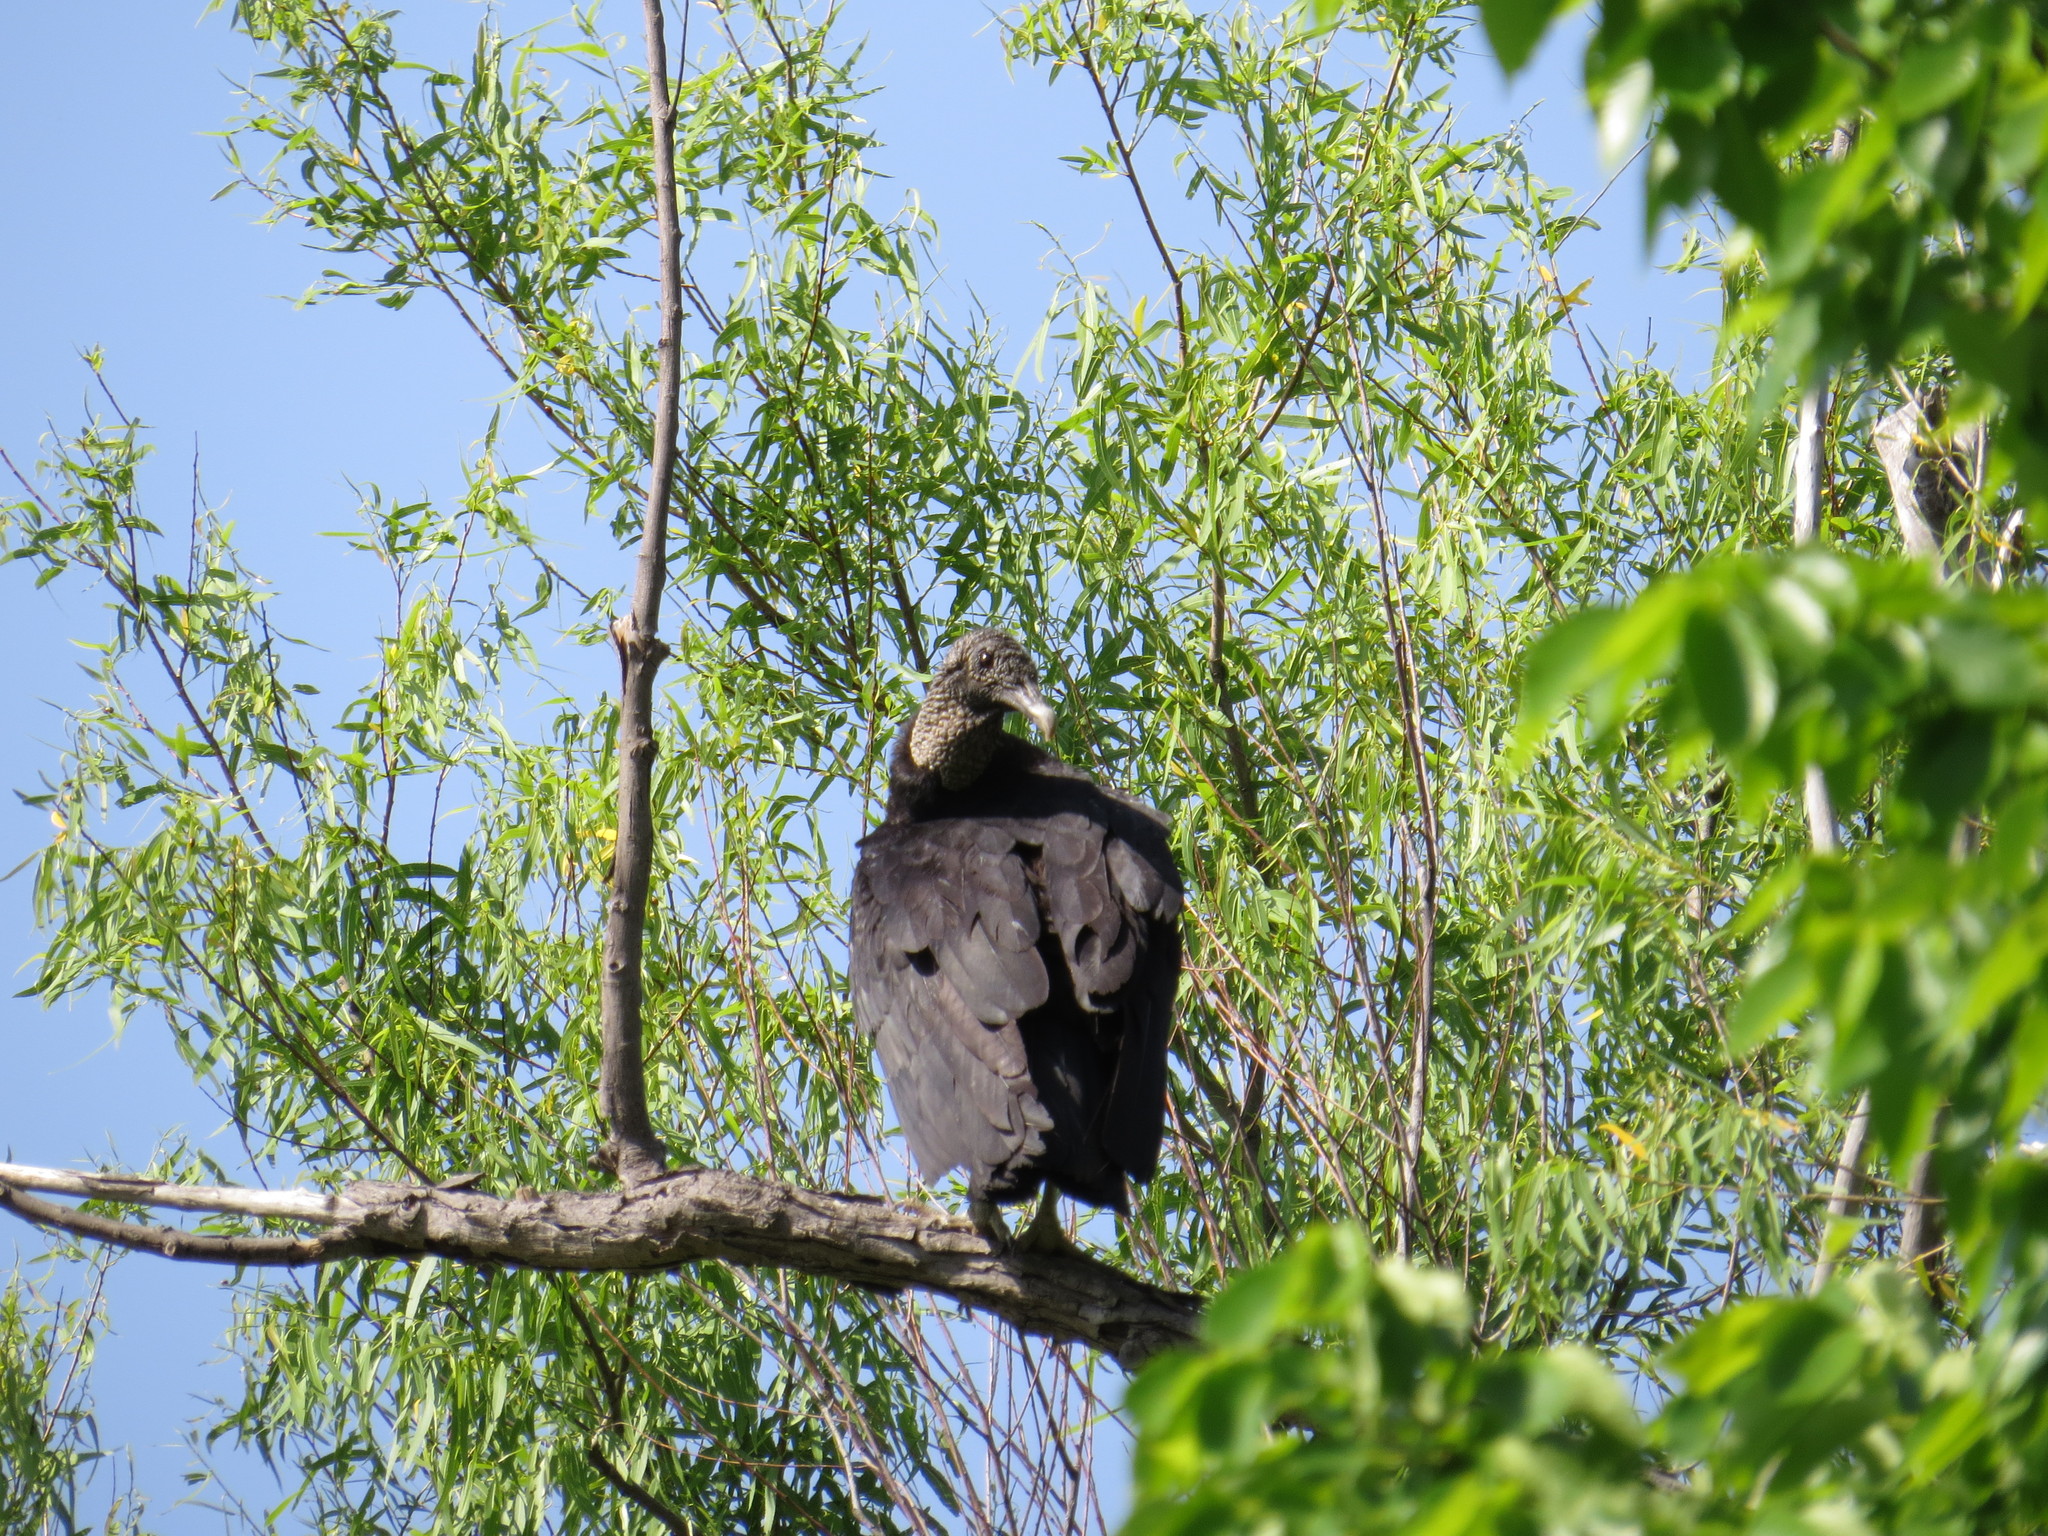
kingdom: Animalia
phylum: Chordata
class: Aves
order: Accipitriformes
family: Cathartidae
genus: Coragyps
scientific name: Coragyps atratus
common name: Black vulture
